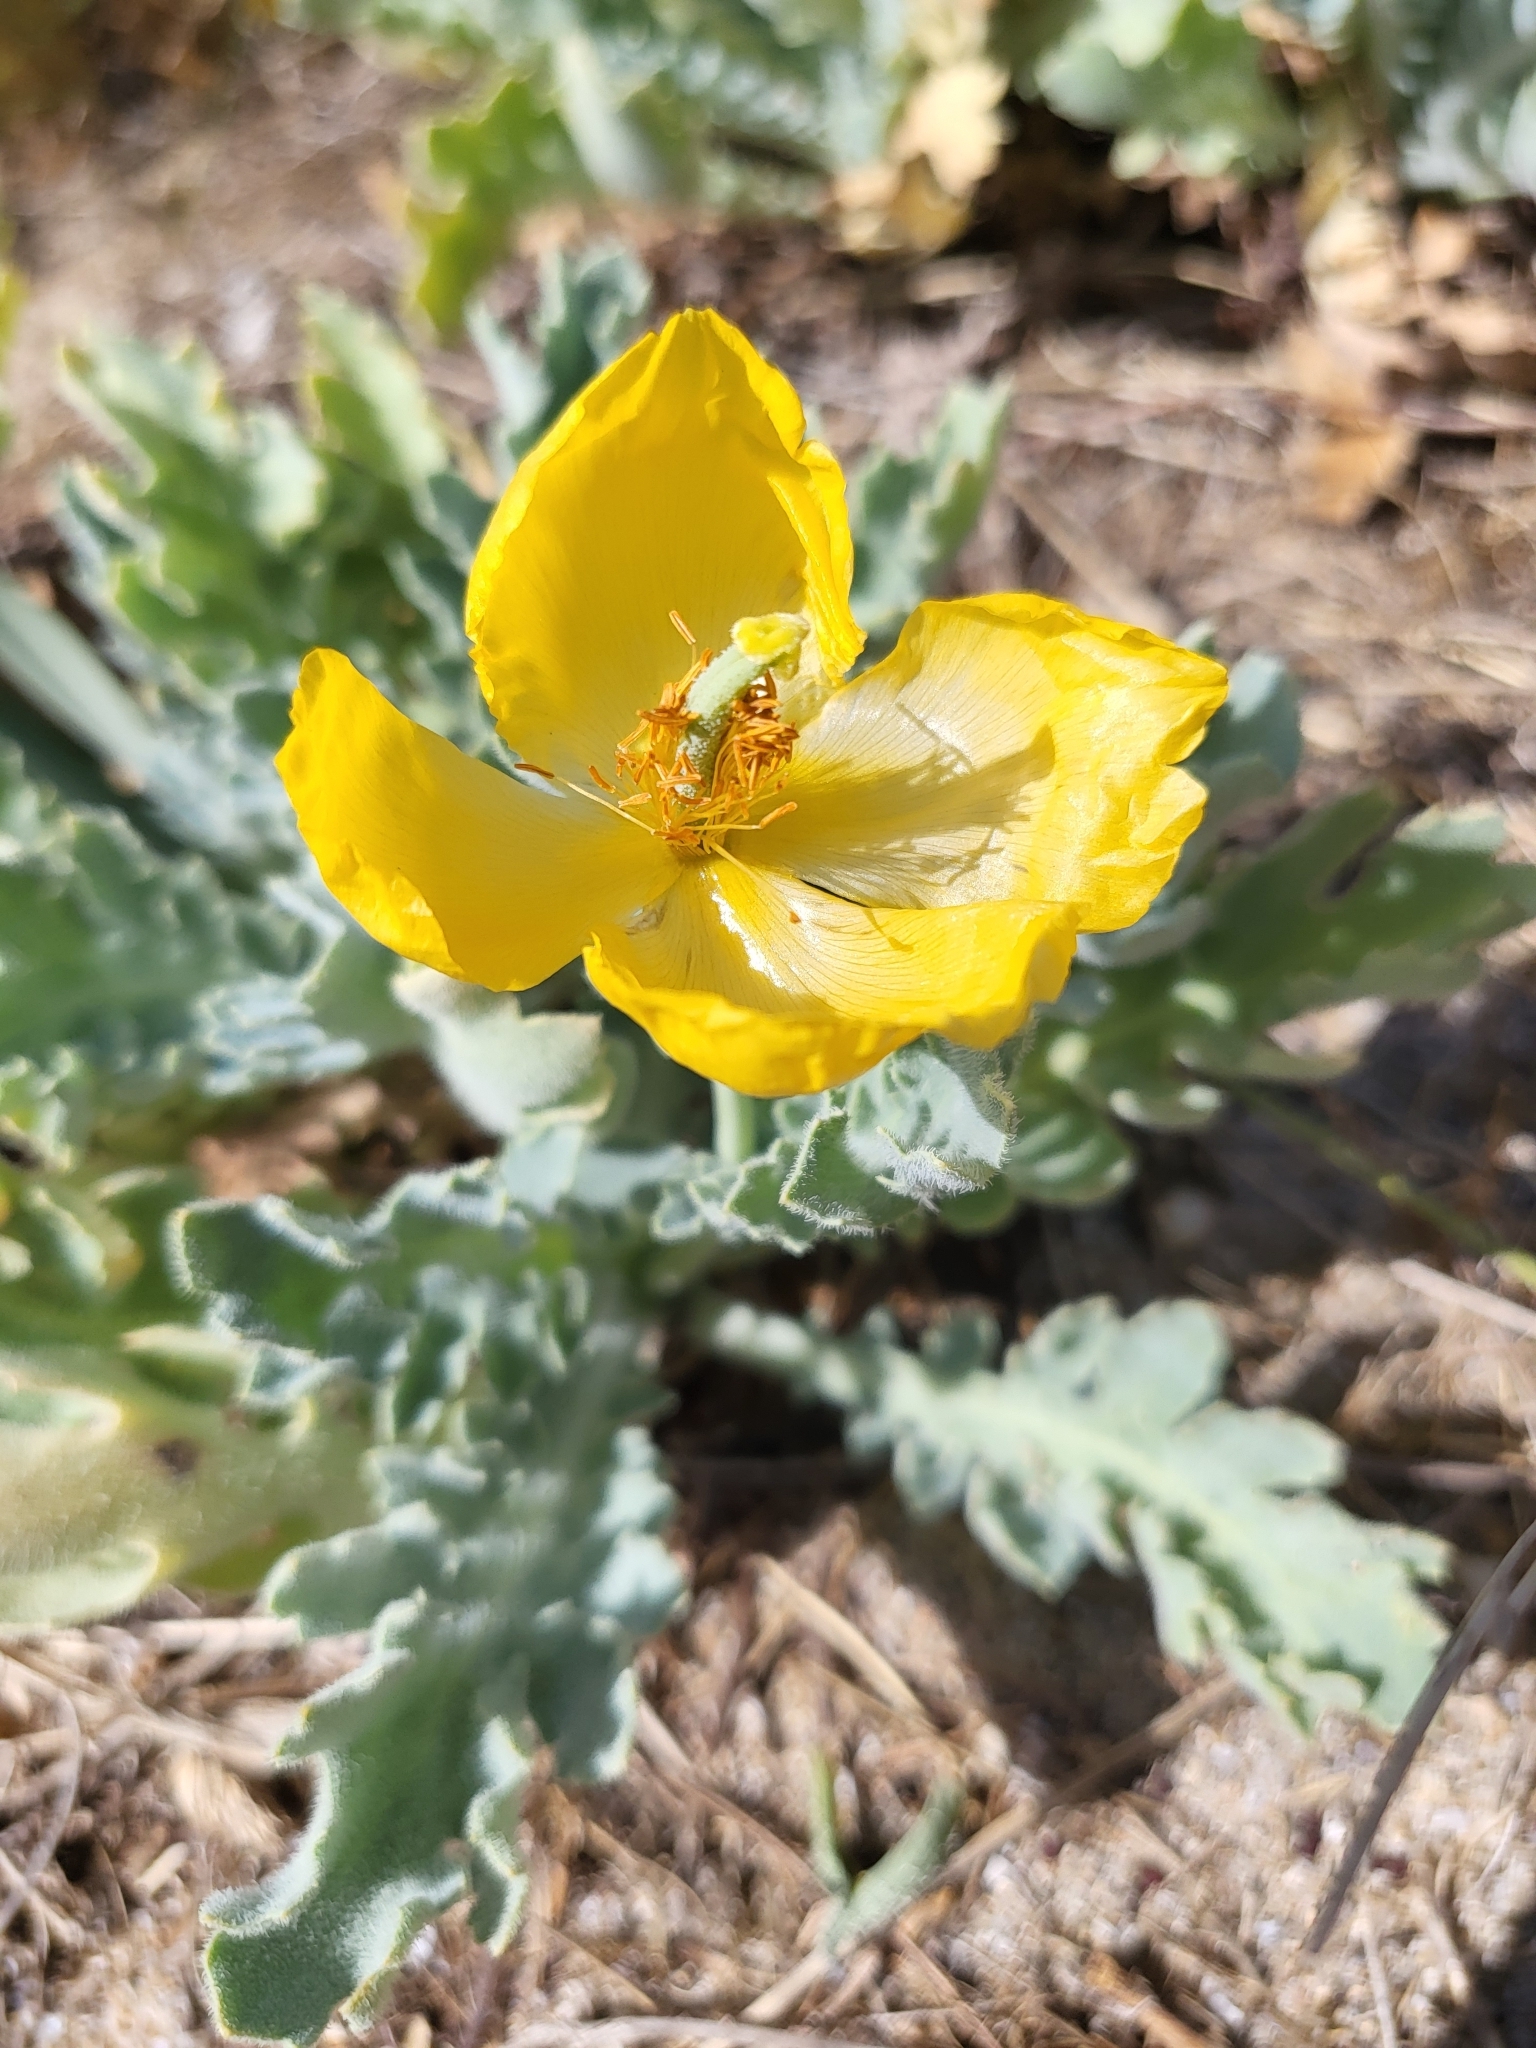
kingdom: Plantae
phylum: Tracheophyta
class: Magnoliopsida
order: Ranunculales
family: Papaveraceae
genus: Glaucium
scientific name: Glaucium flavum
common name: Yellow horned-poppy
